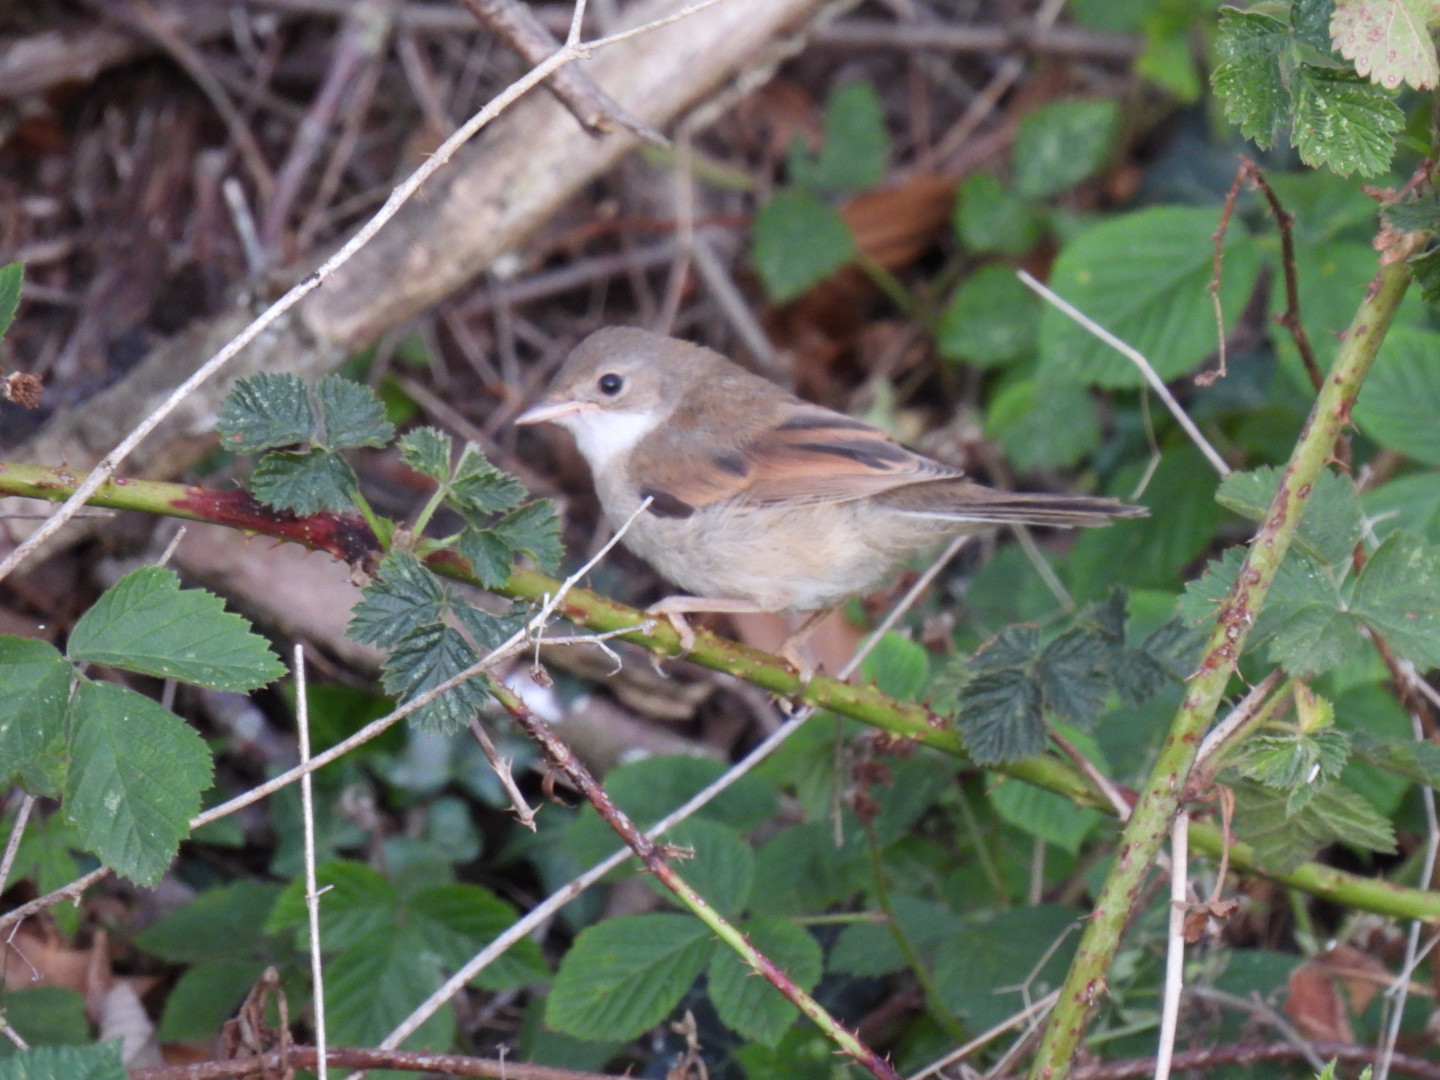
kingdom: Animalia
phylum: Chordata
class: Aves
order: Passeriformes
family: Sylviidae
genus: Sylvia
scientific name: Sylvia communis
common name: Common whitethroat
